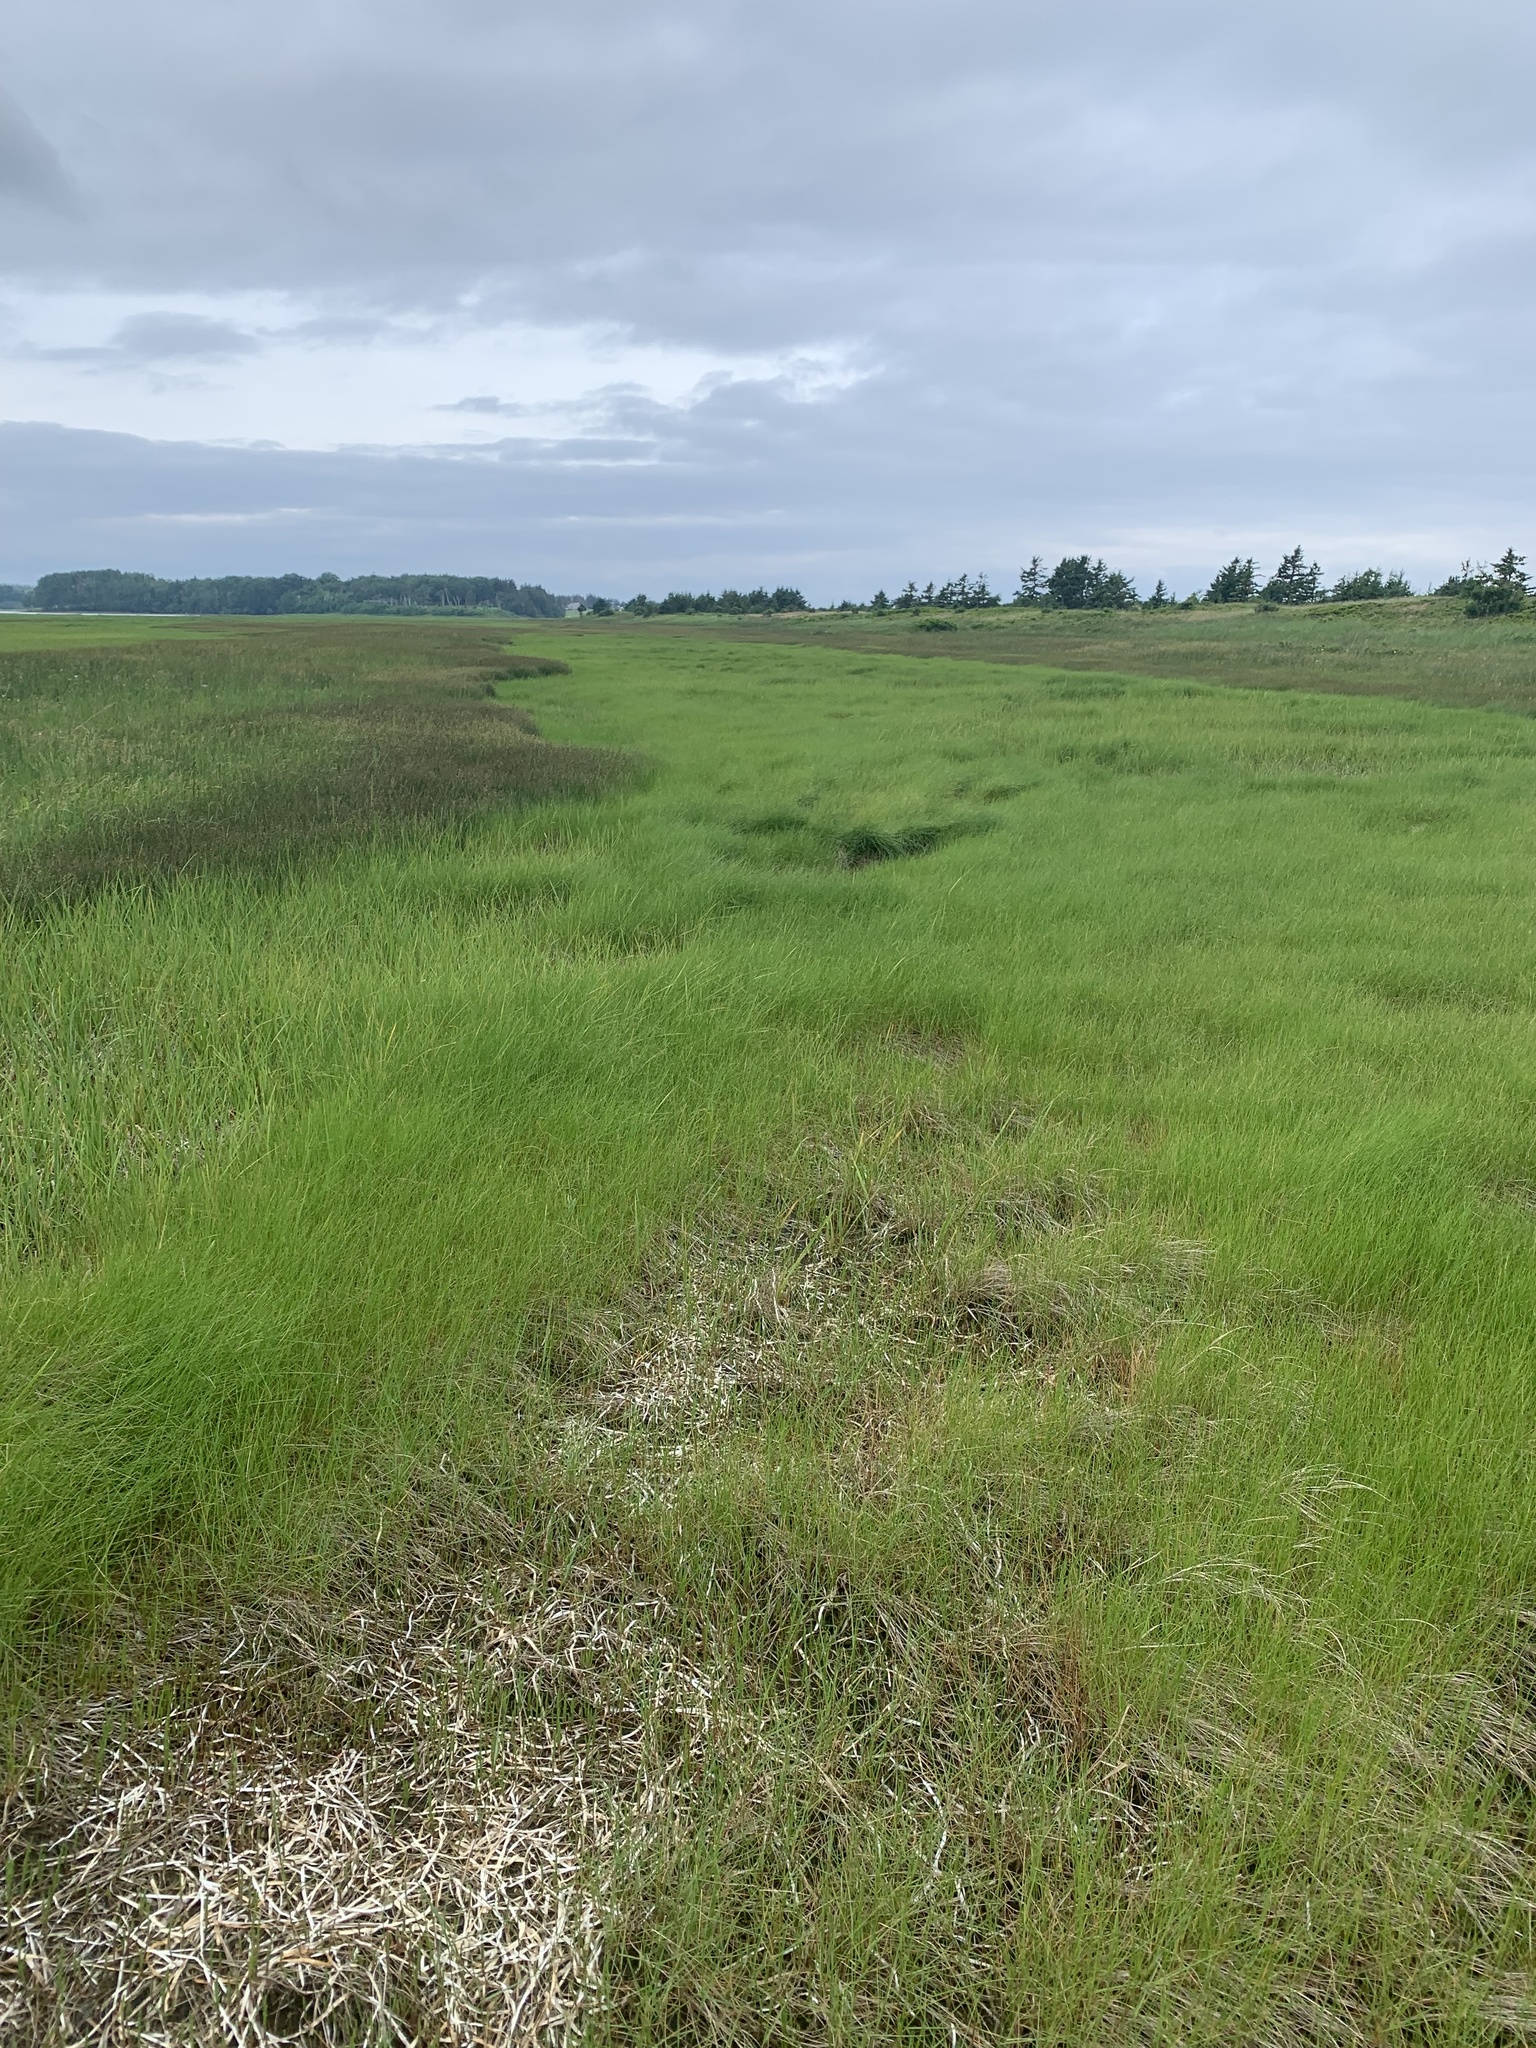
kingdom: Plantae
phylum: Tracheophyta
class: Liliopsida
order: Poales
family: Poaceae
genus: Sporobolus
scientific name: Sporobolus pumilus
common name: Highwater grass
